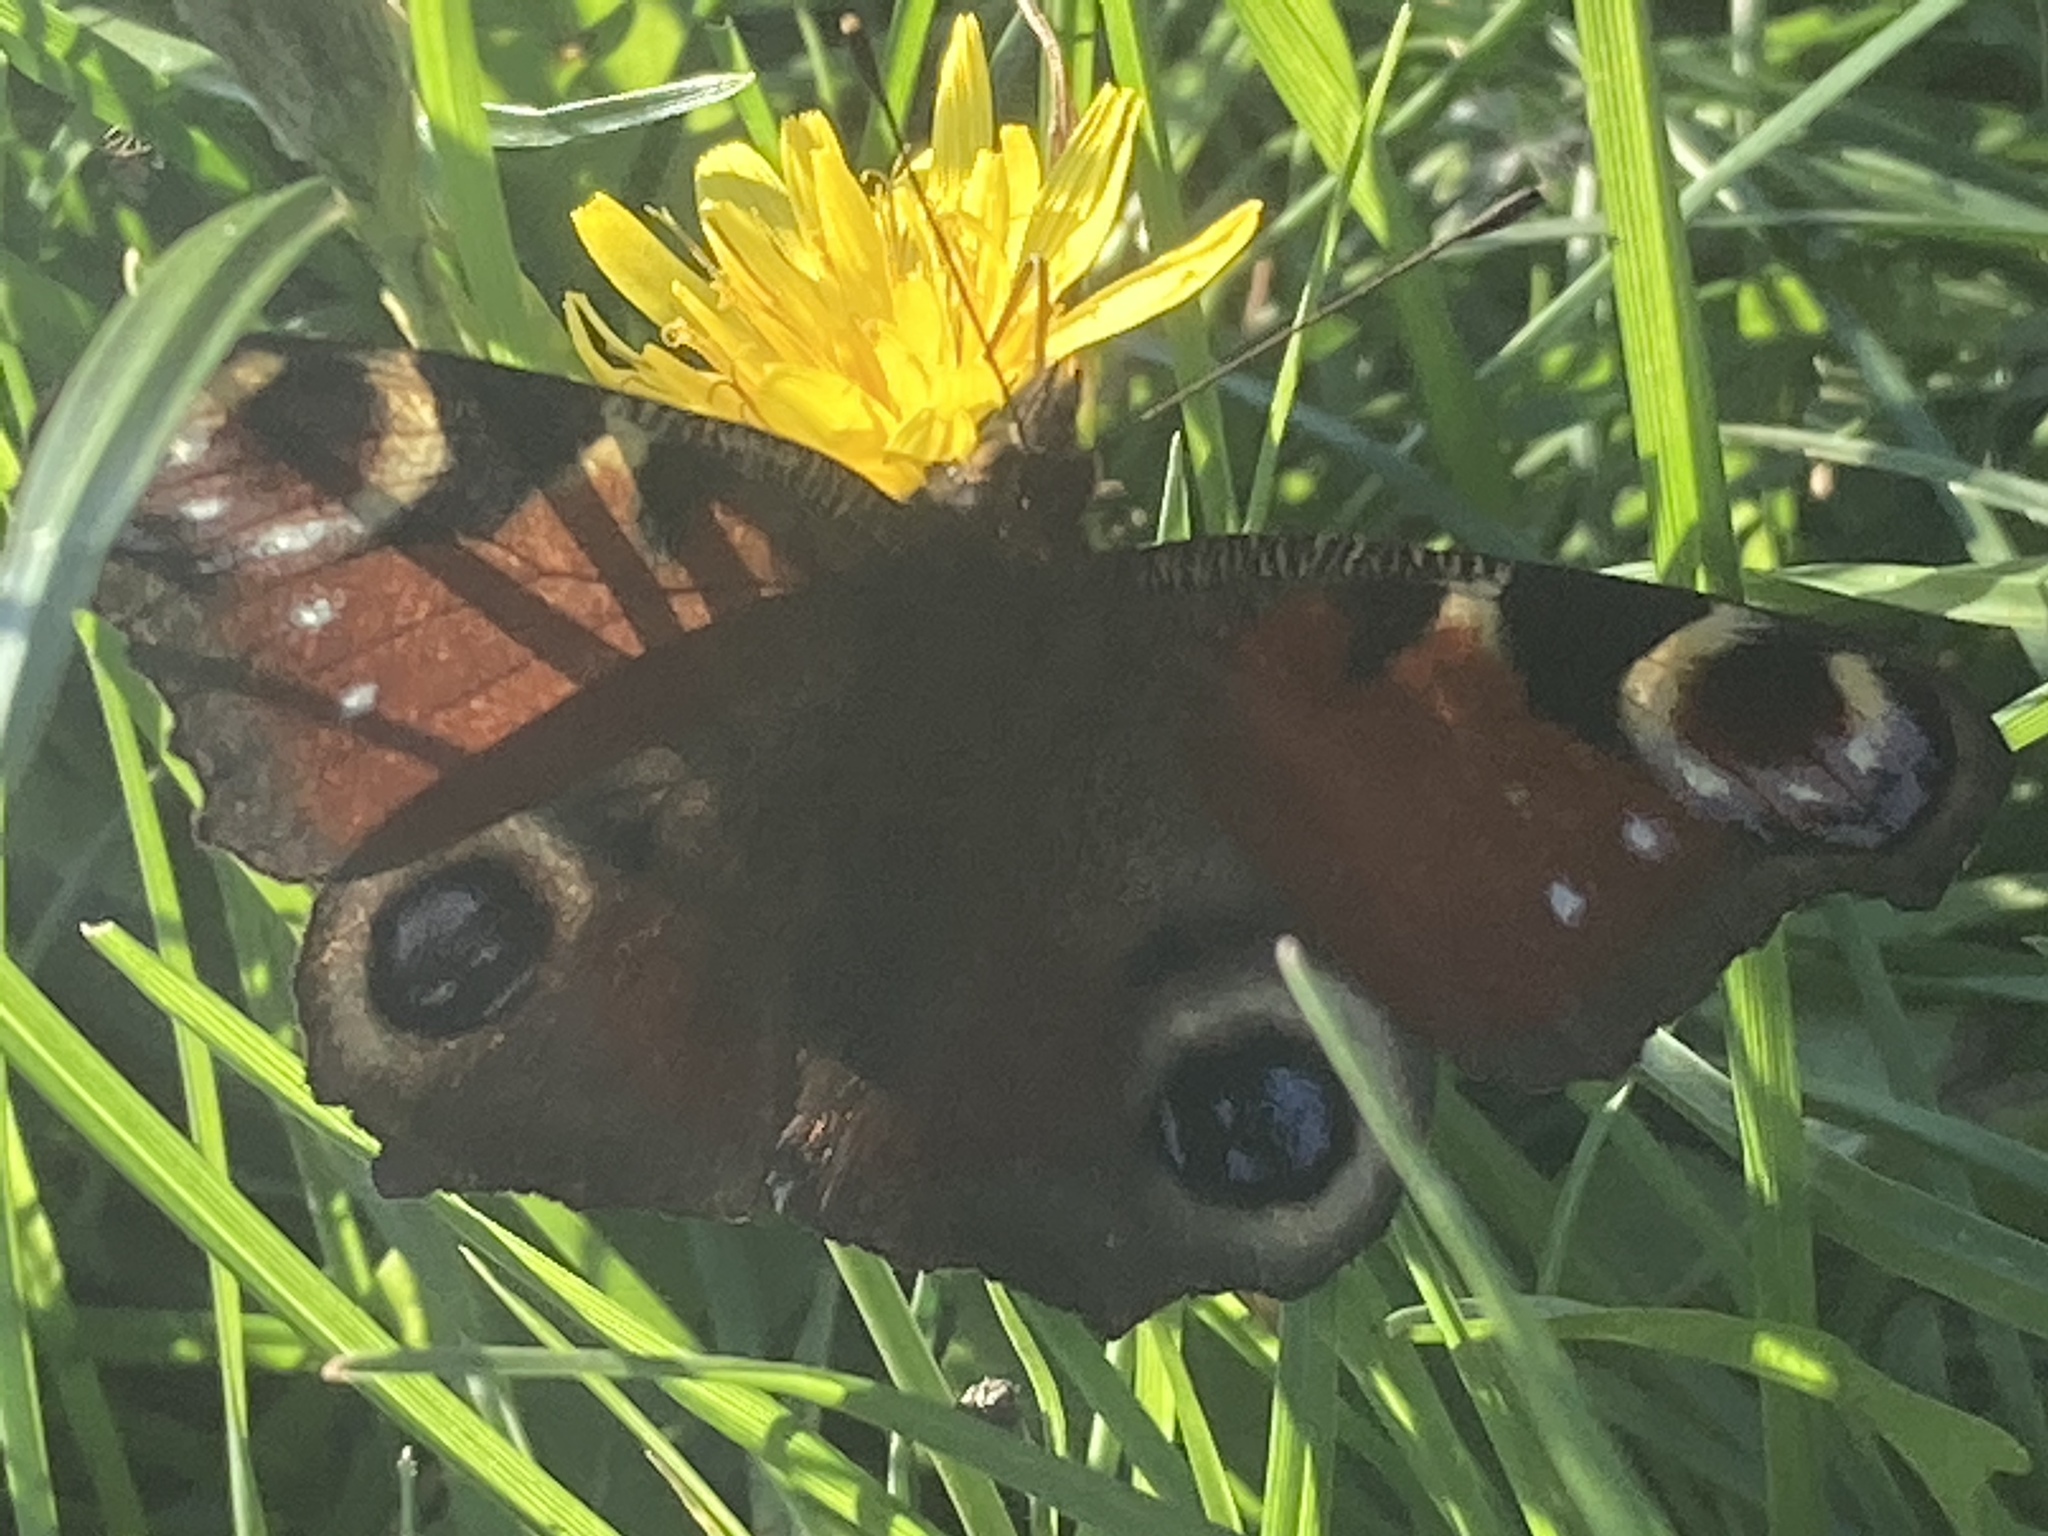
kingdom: Animalia
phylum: Arthropoda
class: Insecta
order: Lepidoptera
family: Nymphalidae
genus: Aglais
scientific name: Aglais io
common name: Peacock
